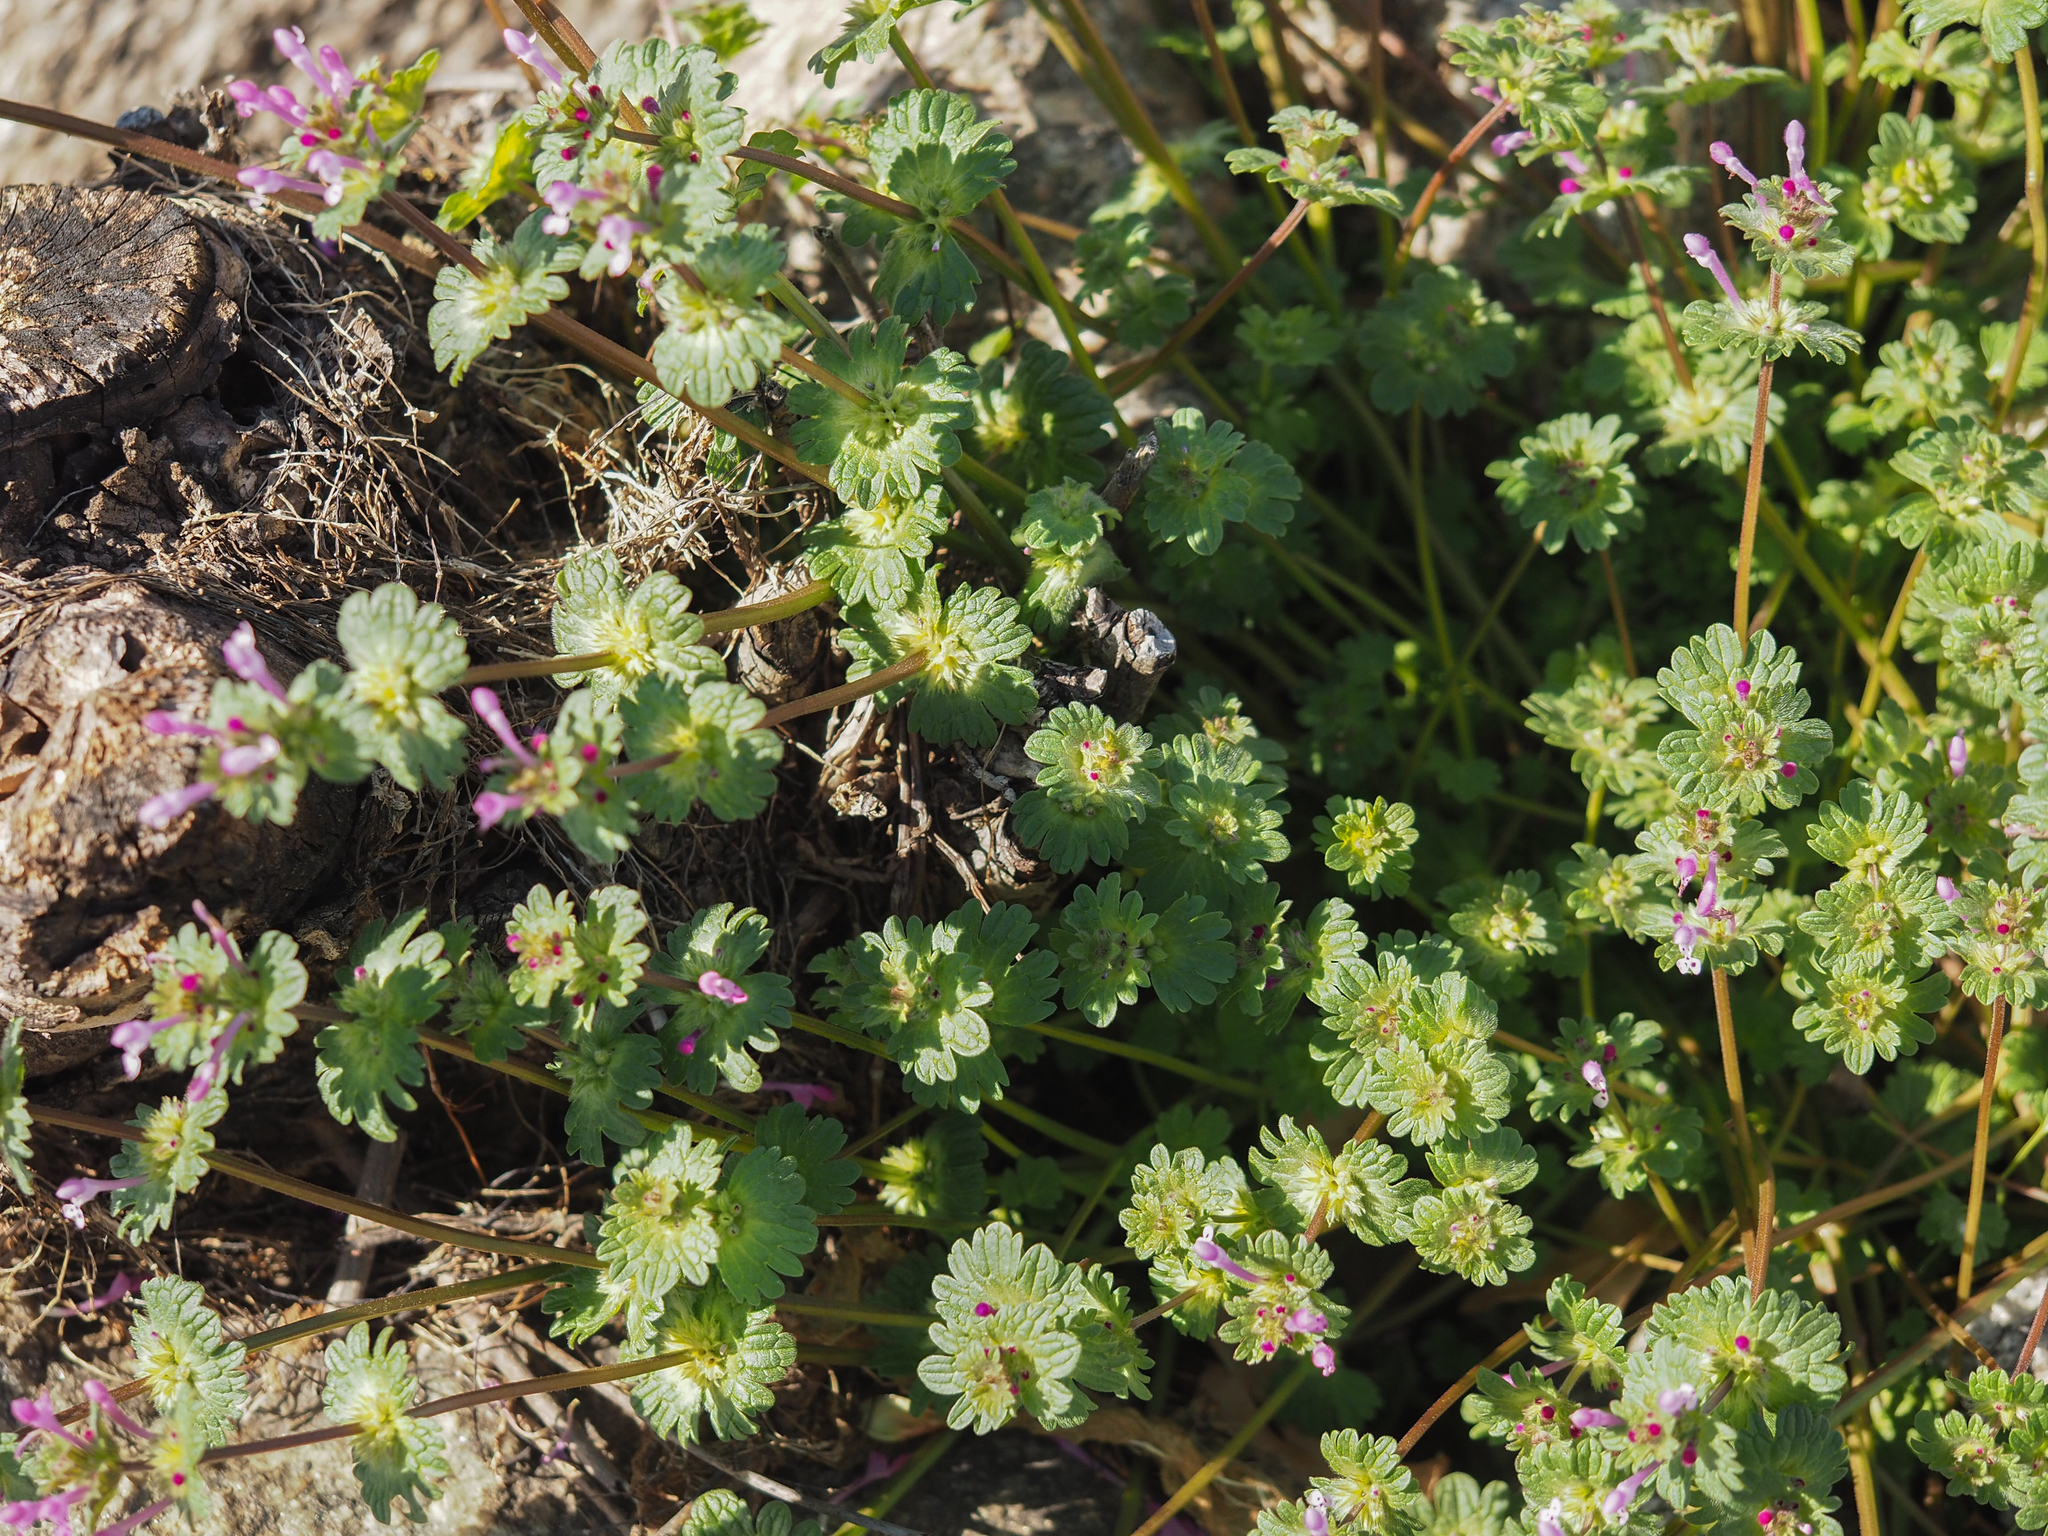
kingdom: Plantae
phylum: Tracheophyta
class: Magnoliopsida
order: Lamiales
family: Lamiaceae
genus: Lamium
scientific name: Lamium amplexicaule
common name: Henbit dead-nettle
